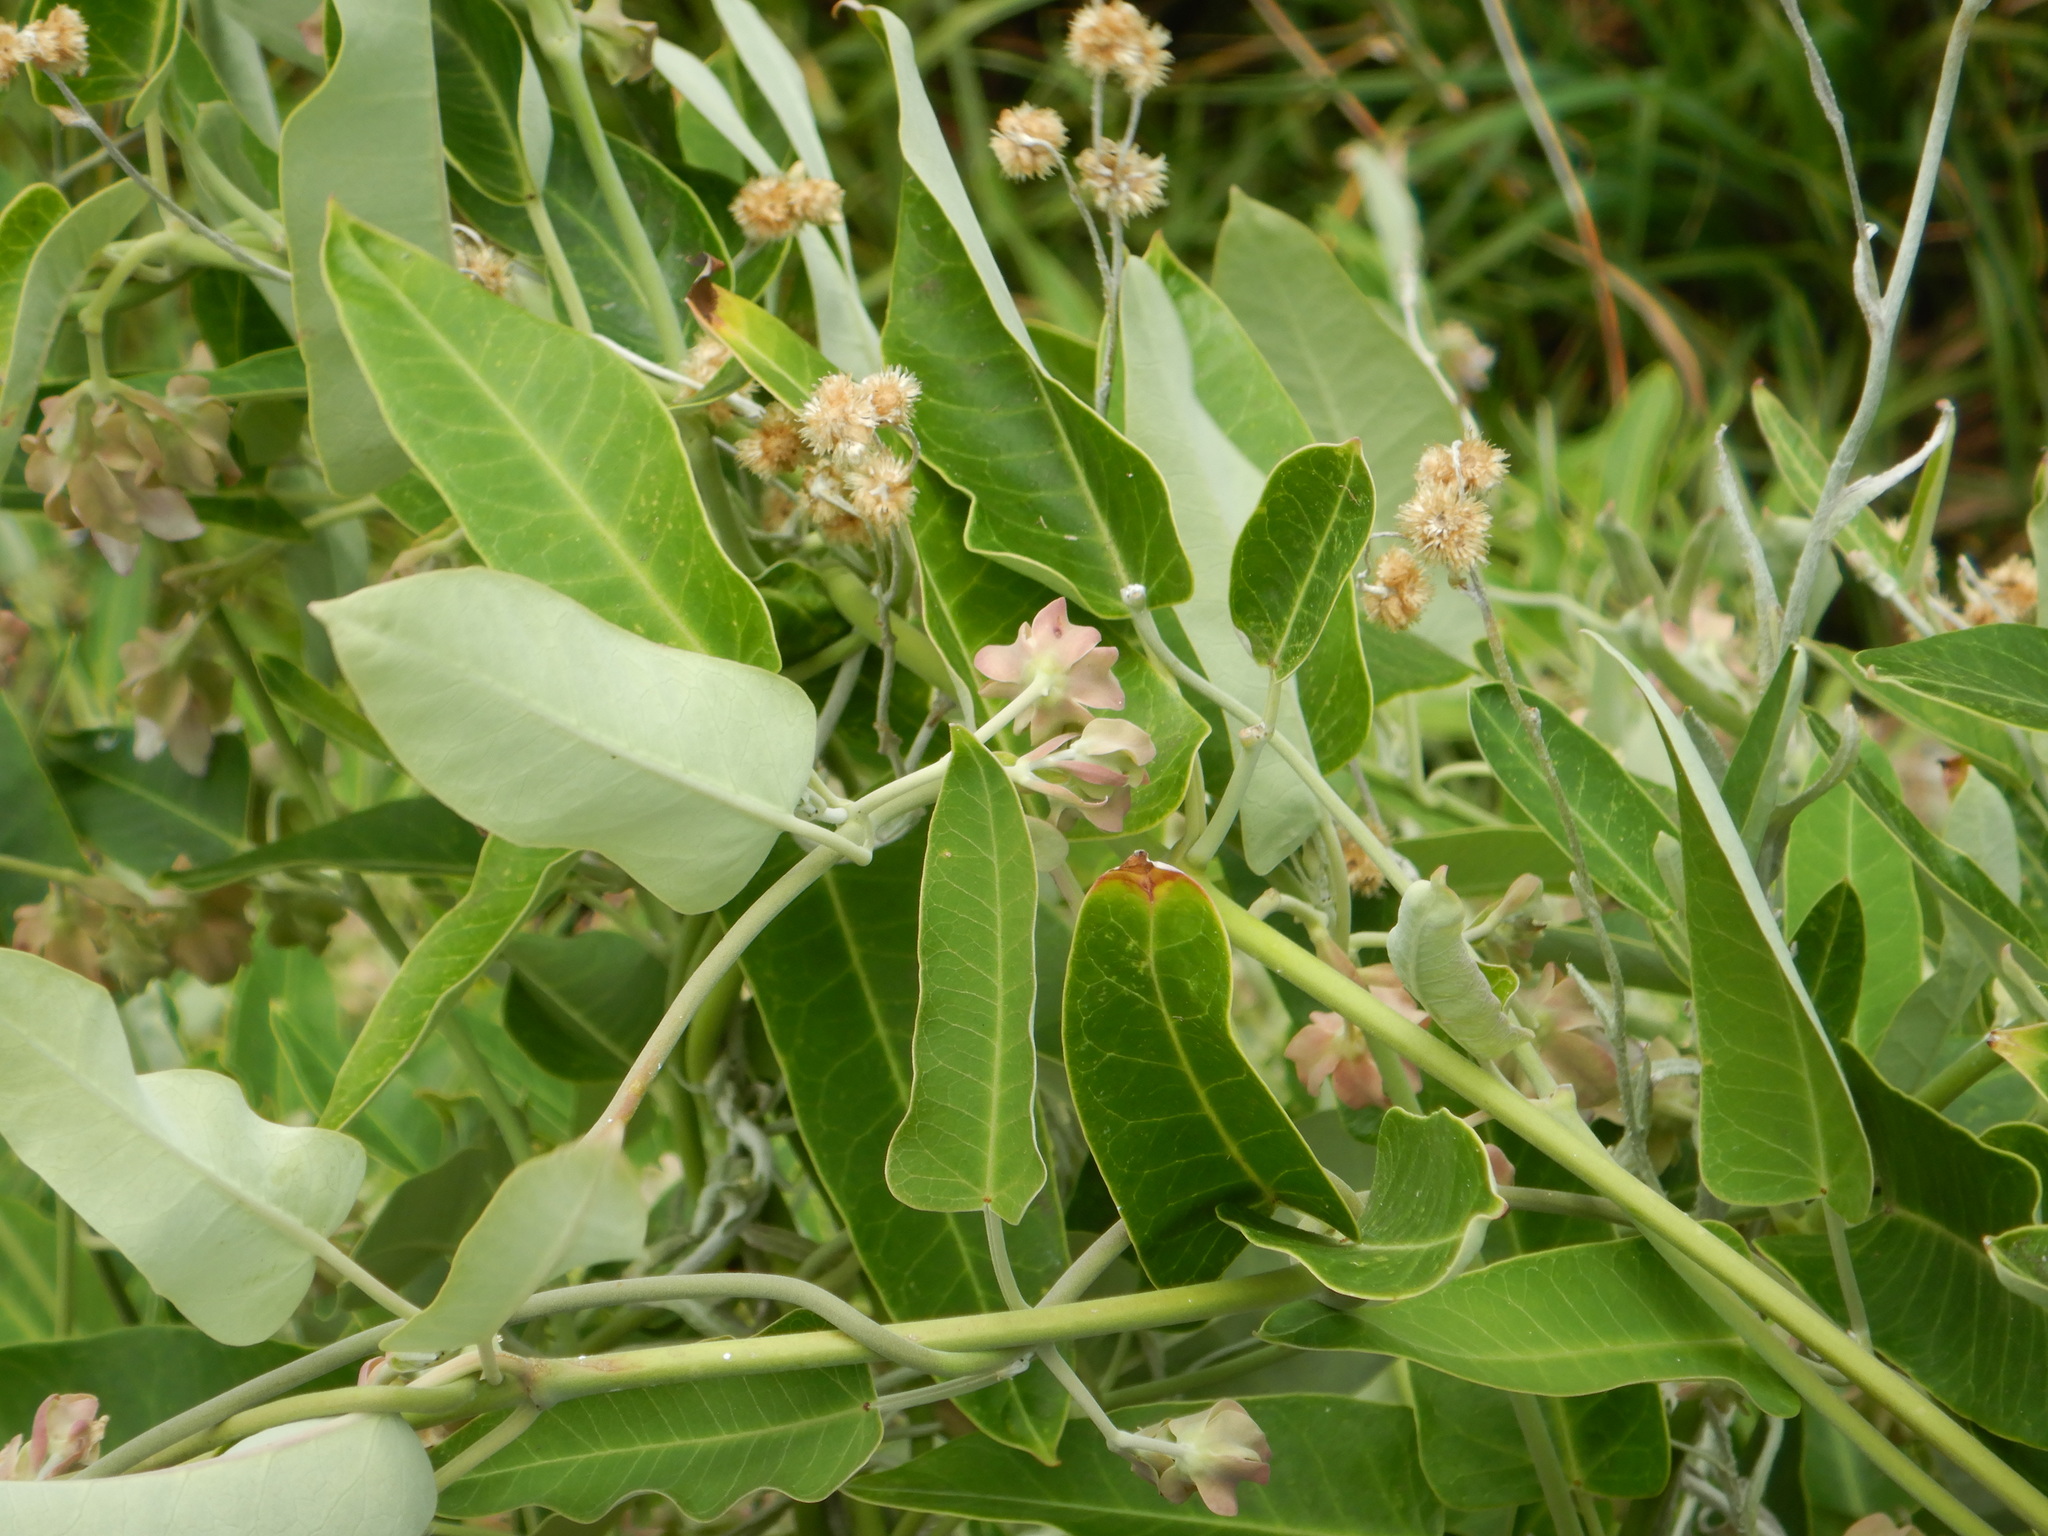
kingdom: Plantae
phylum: Tracheophyta
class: Magnoliopsida
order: Gentianales
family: Apocynaceae
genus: Araujia
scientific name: Araujia sericifera
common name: White bladderflower
